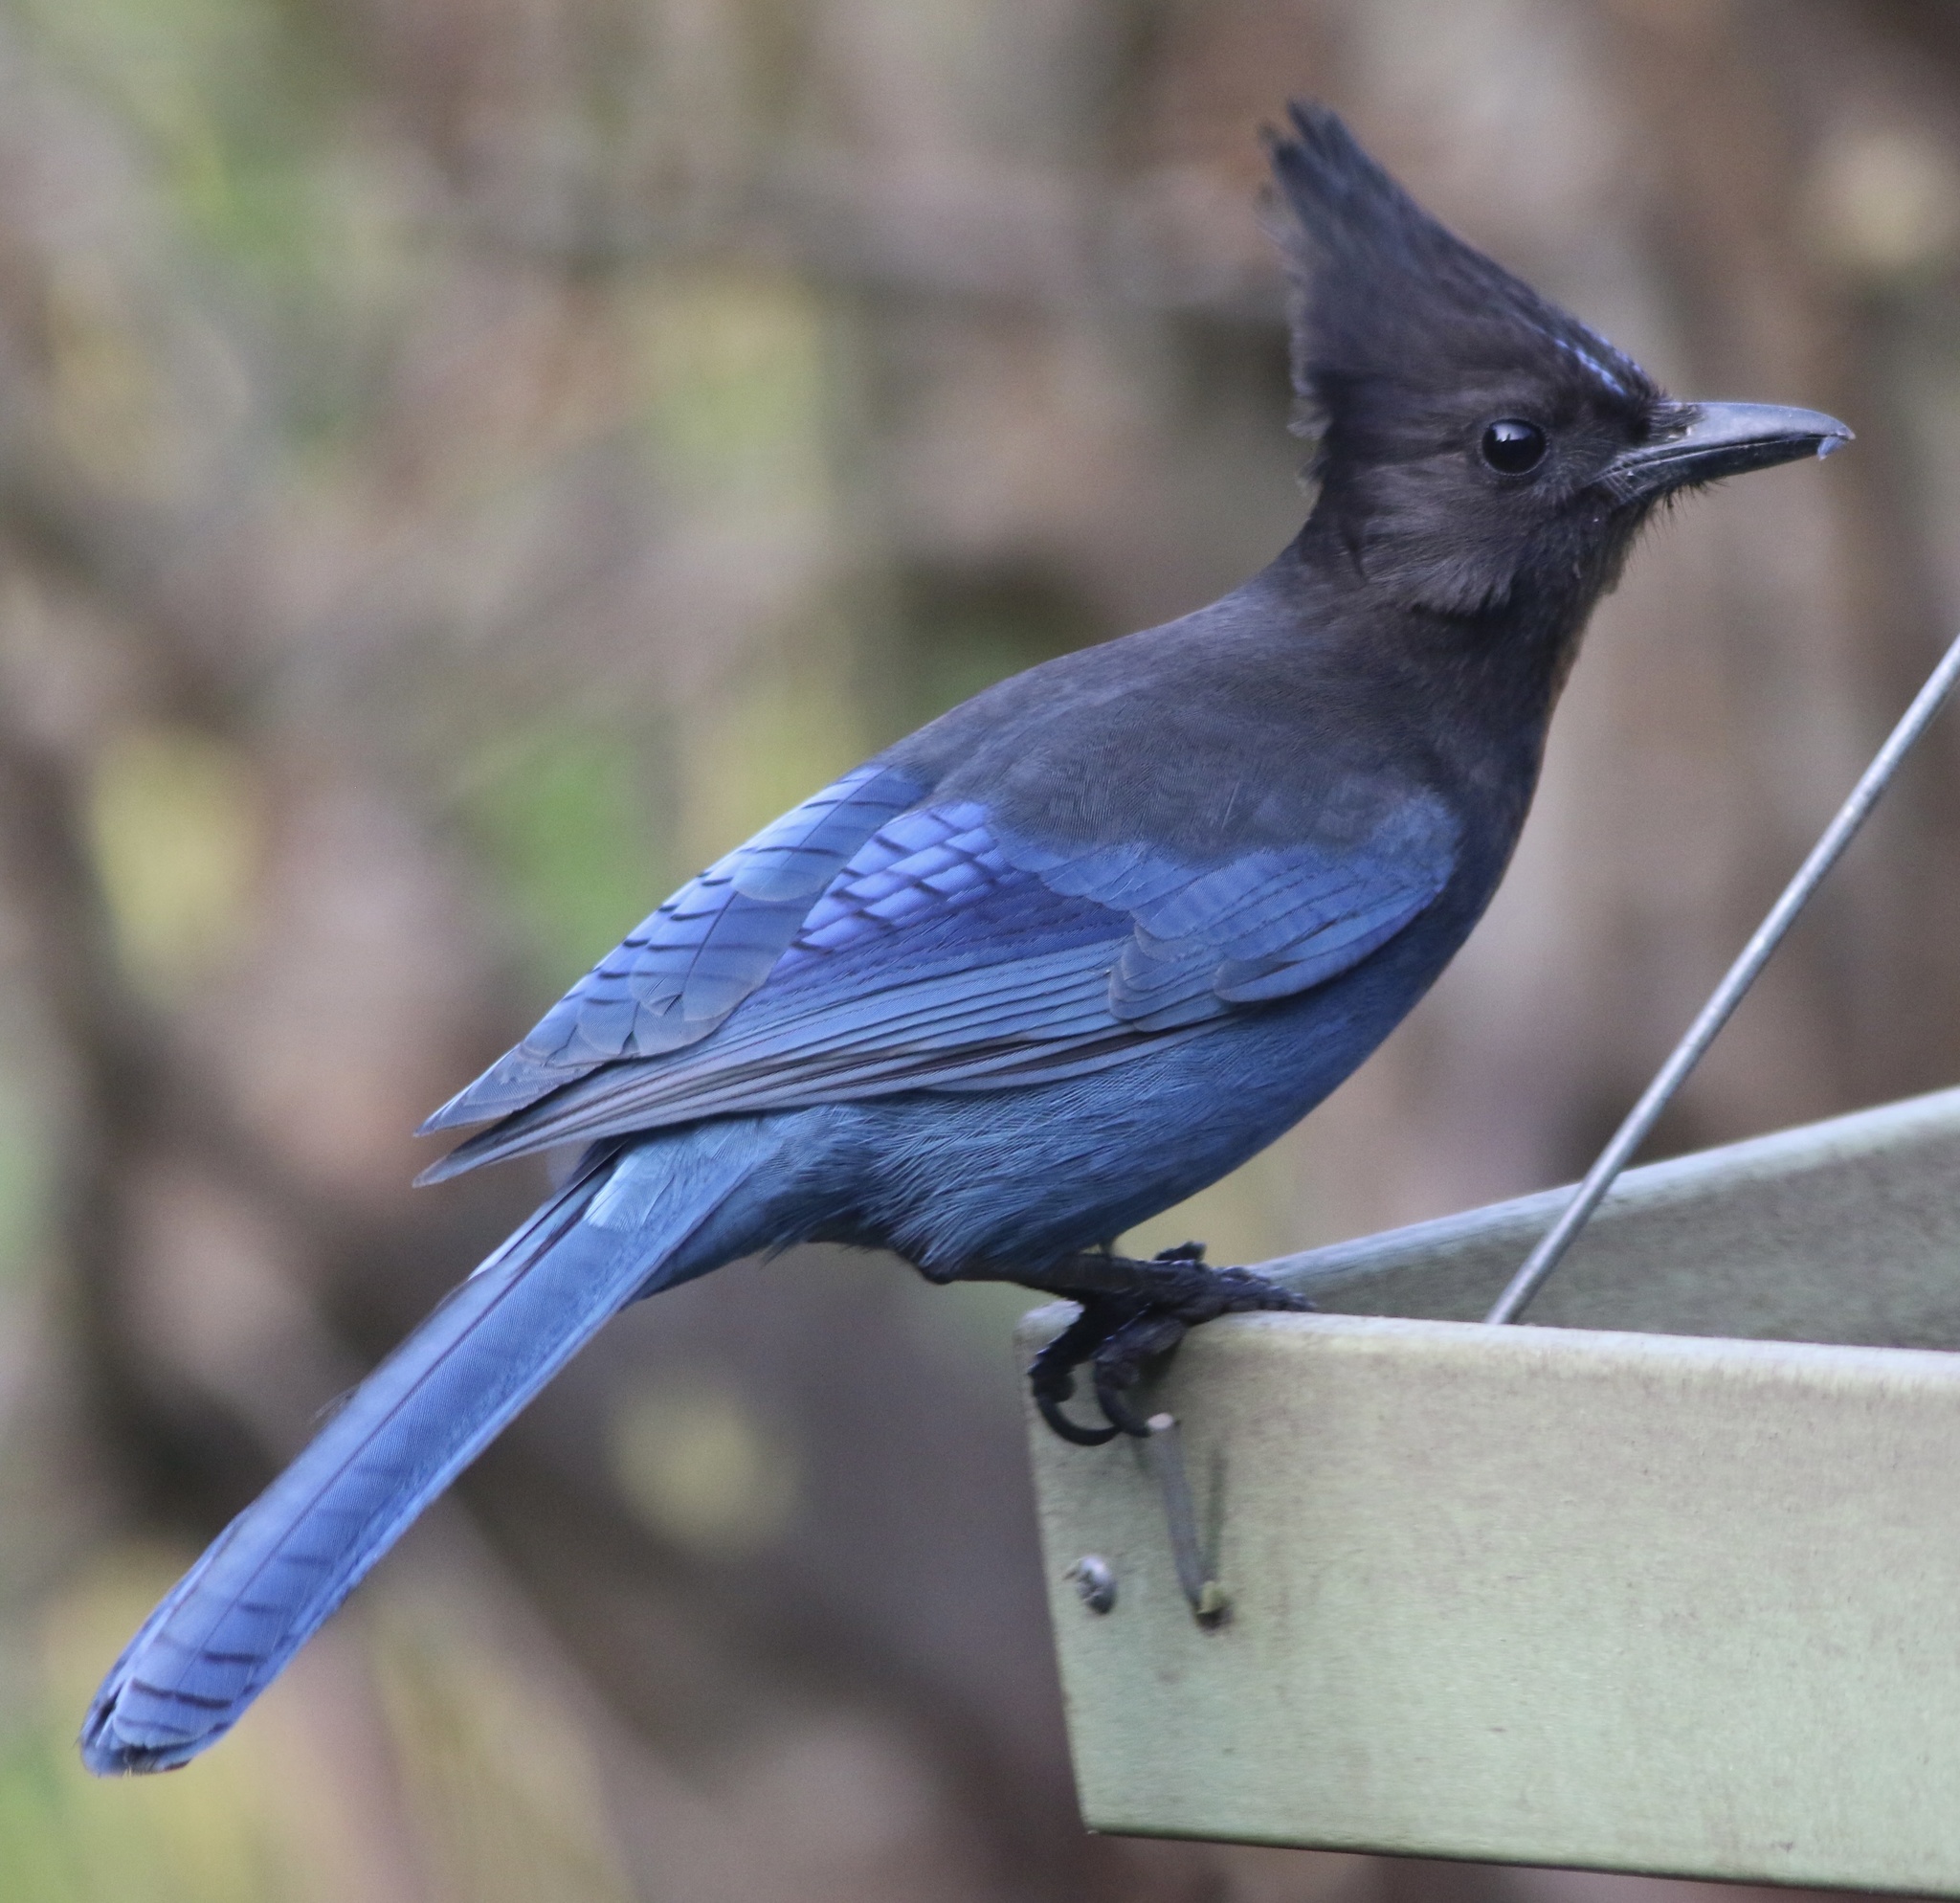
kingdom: Animalia
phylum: Chordata
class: Aves
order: Passeriformes
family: Corvidae
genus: Cyanocitta
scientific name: Cyanocitta stelleri
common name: Steller's jay
